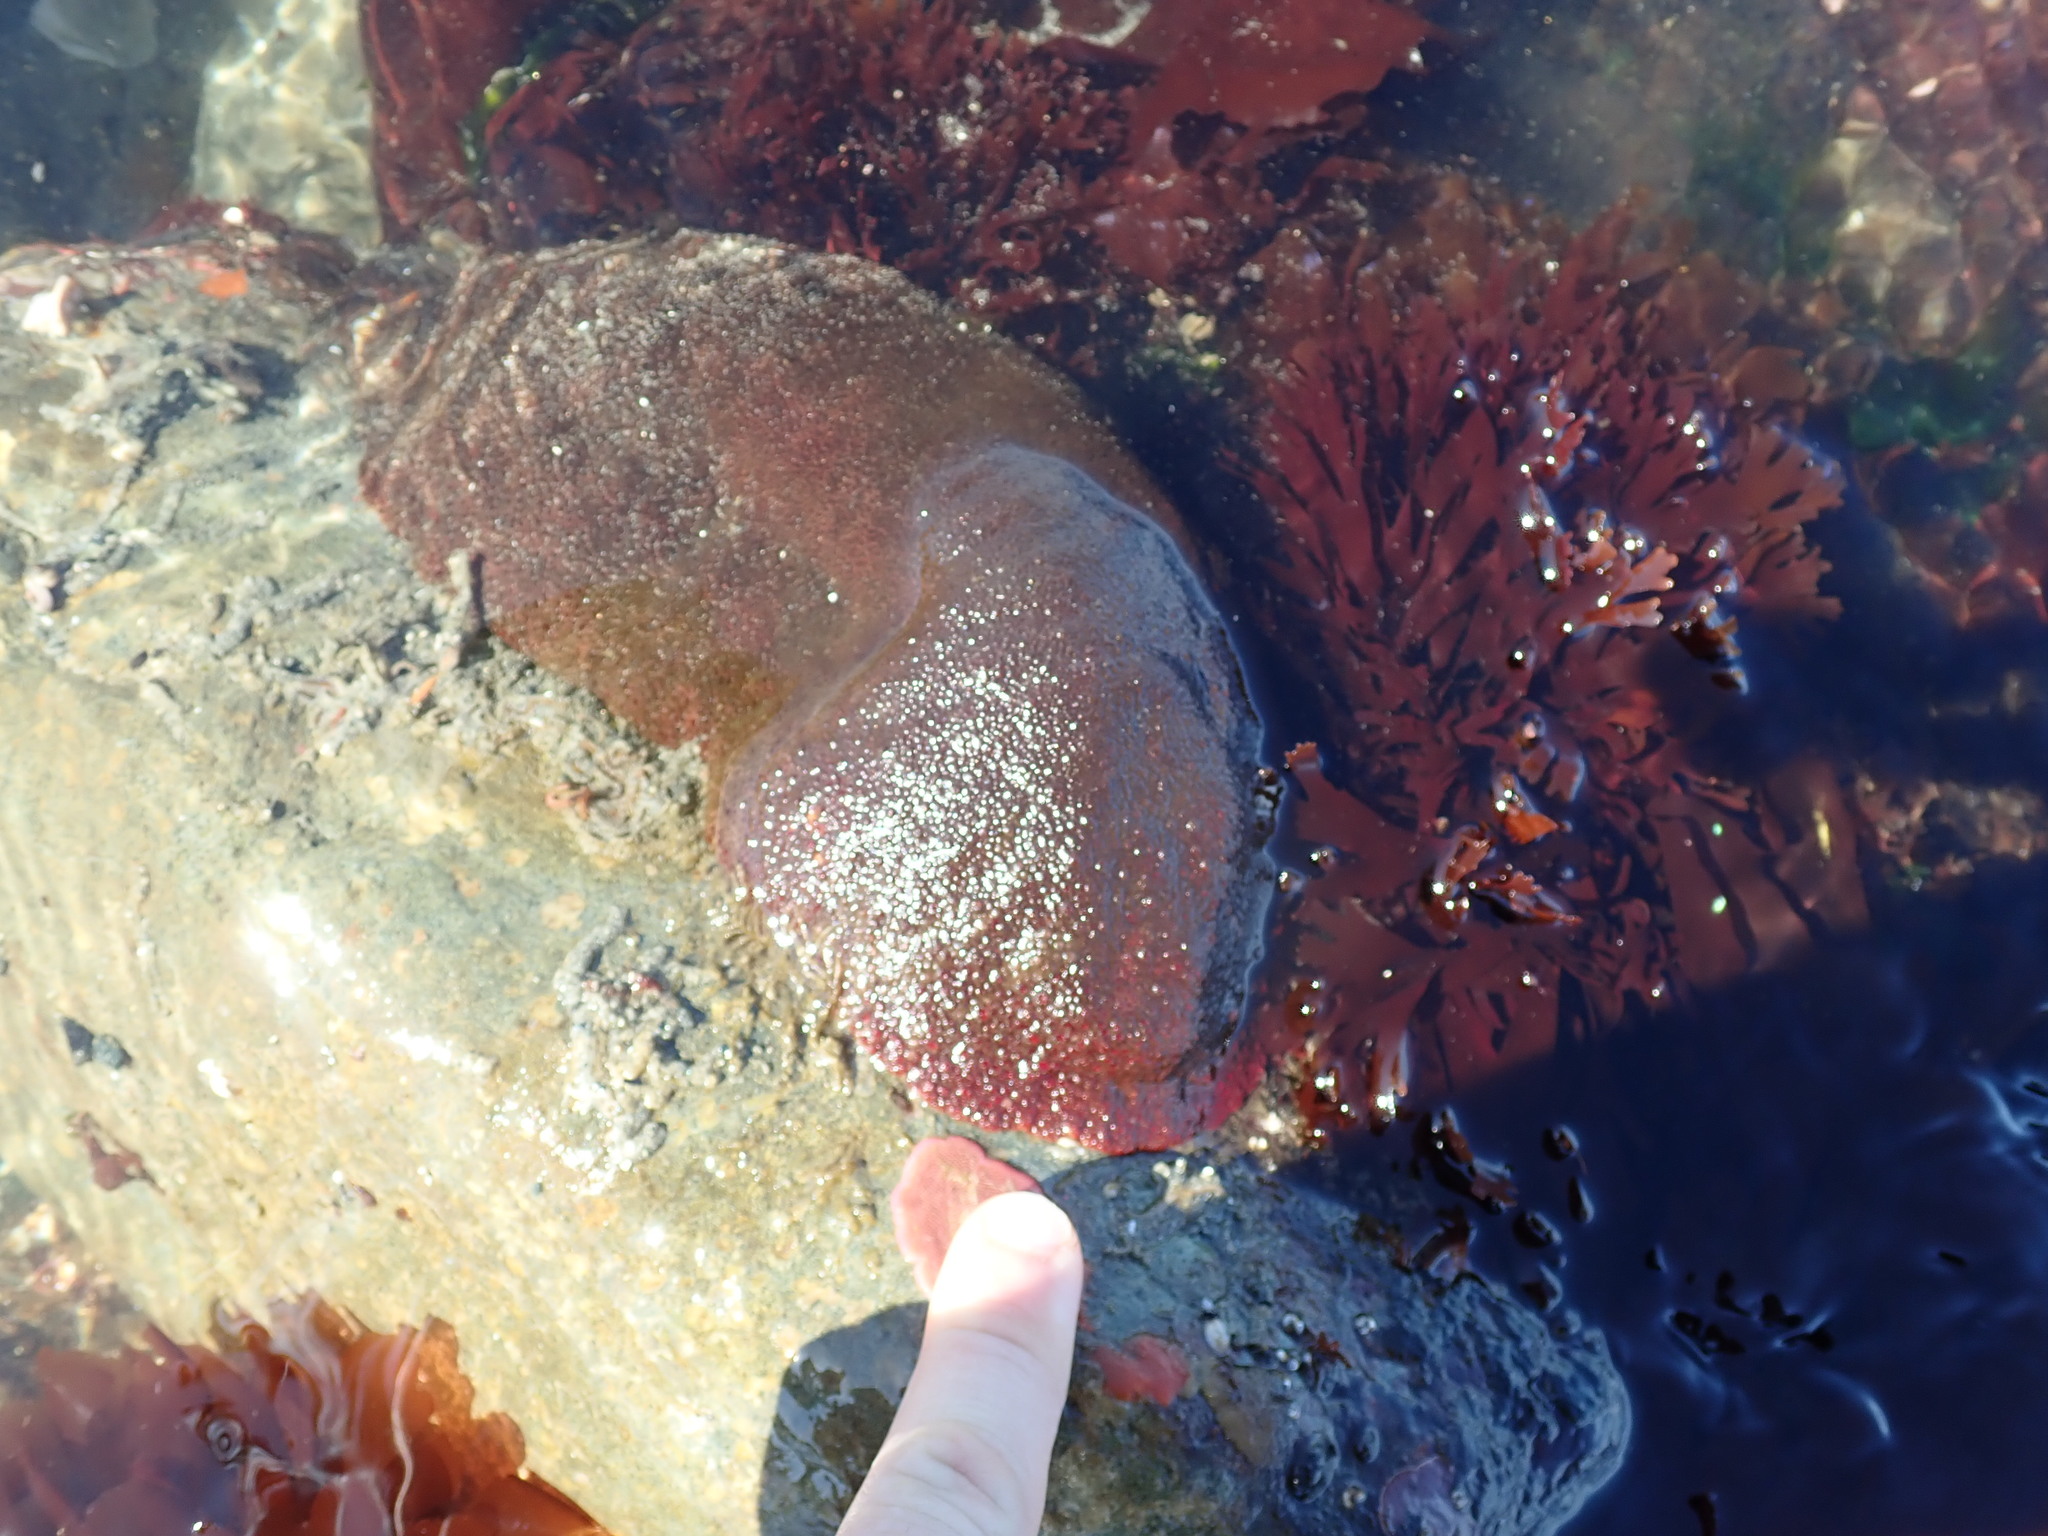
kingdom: Animalia
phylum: Mollusca
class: Polyplacophora
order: Chitonida
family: Acanthochitonidae
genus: Cryptochiton
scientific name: Cryptochiton stelleri
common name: Giant pacific chiton
